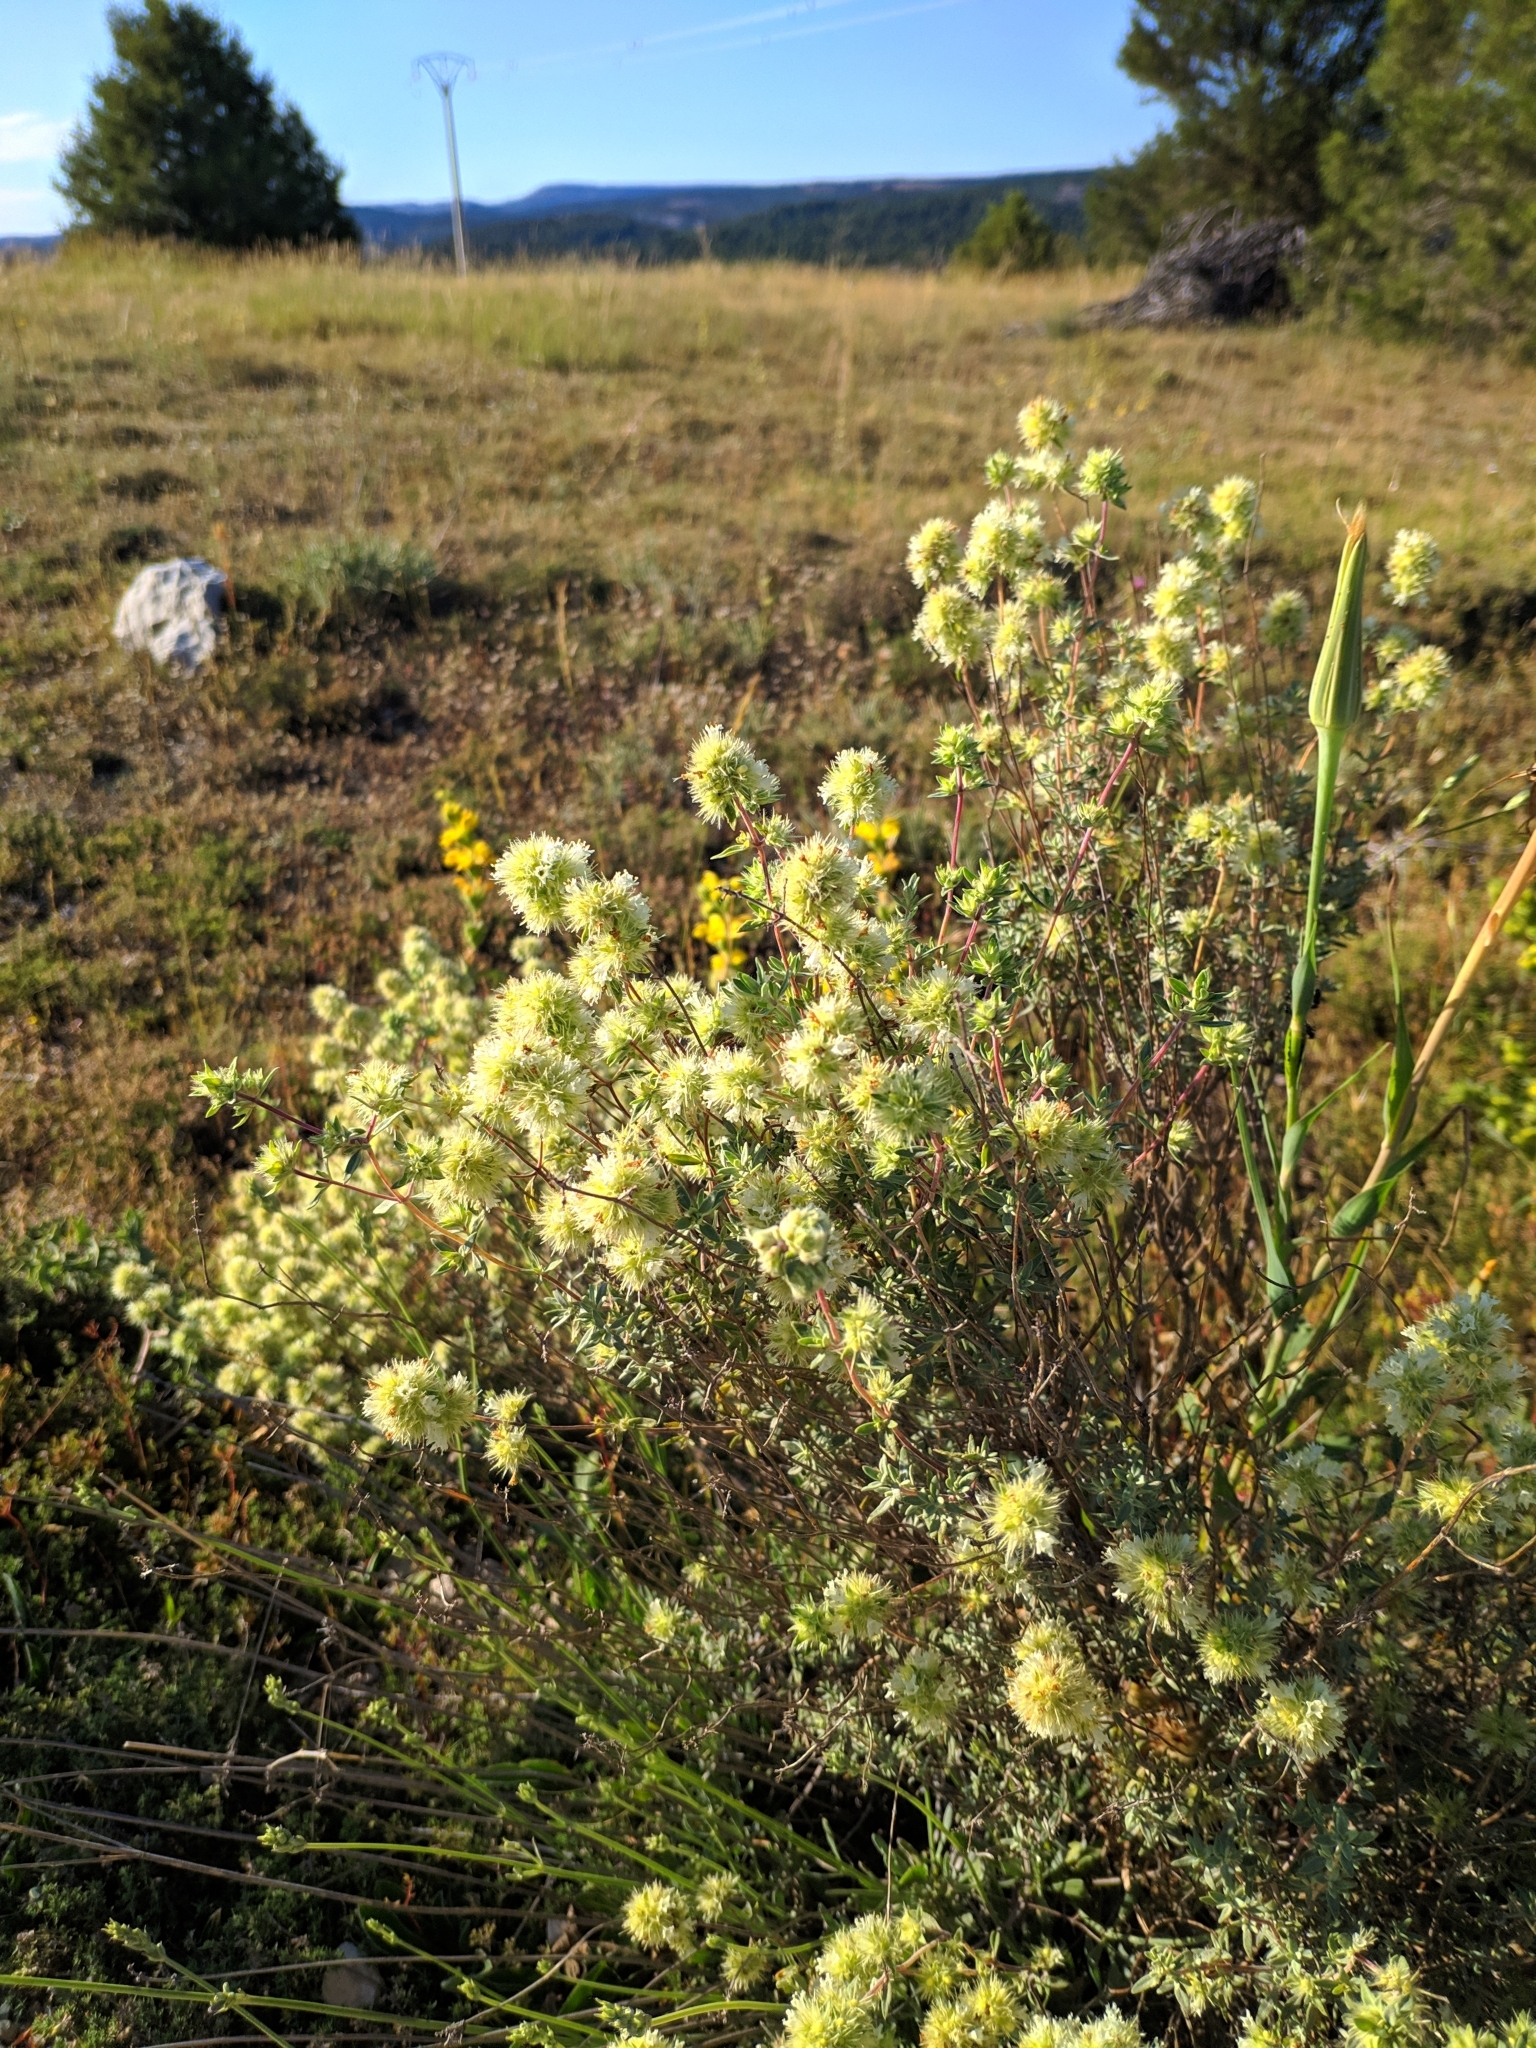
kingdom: Plantae
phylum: Tracheophyta
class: Magnoliopsida
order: Lamiales
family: Lamiaceae
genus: Thymus
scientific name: Thymus mastichina
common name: Mastic thyme
